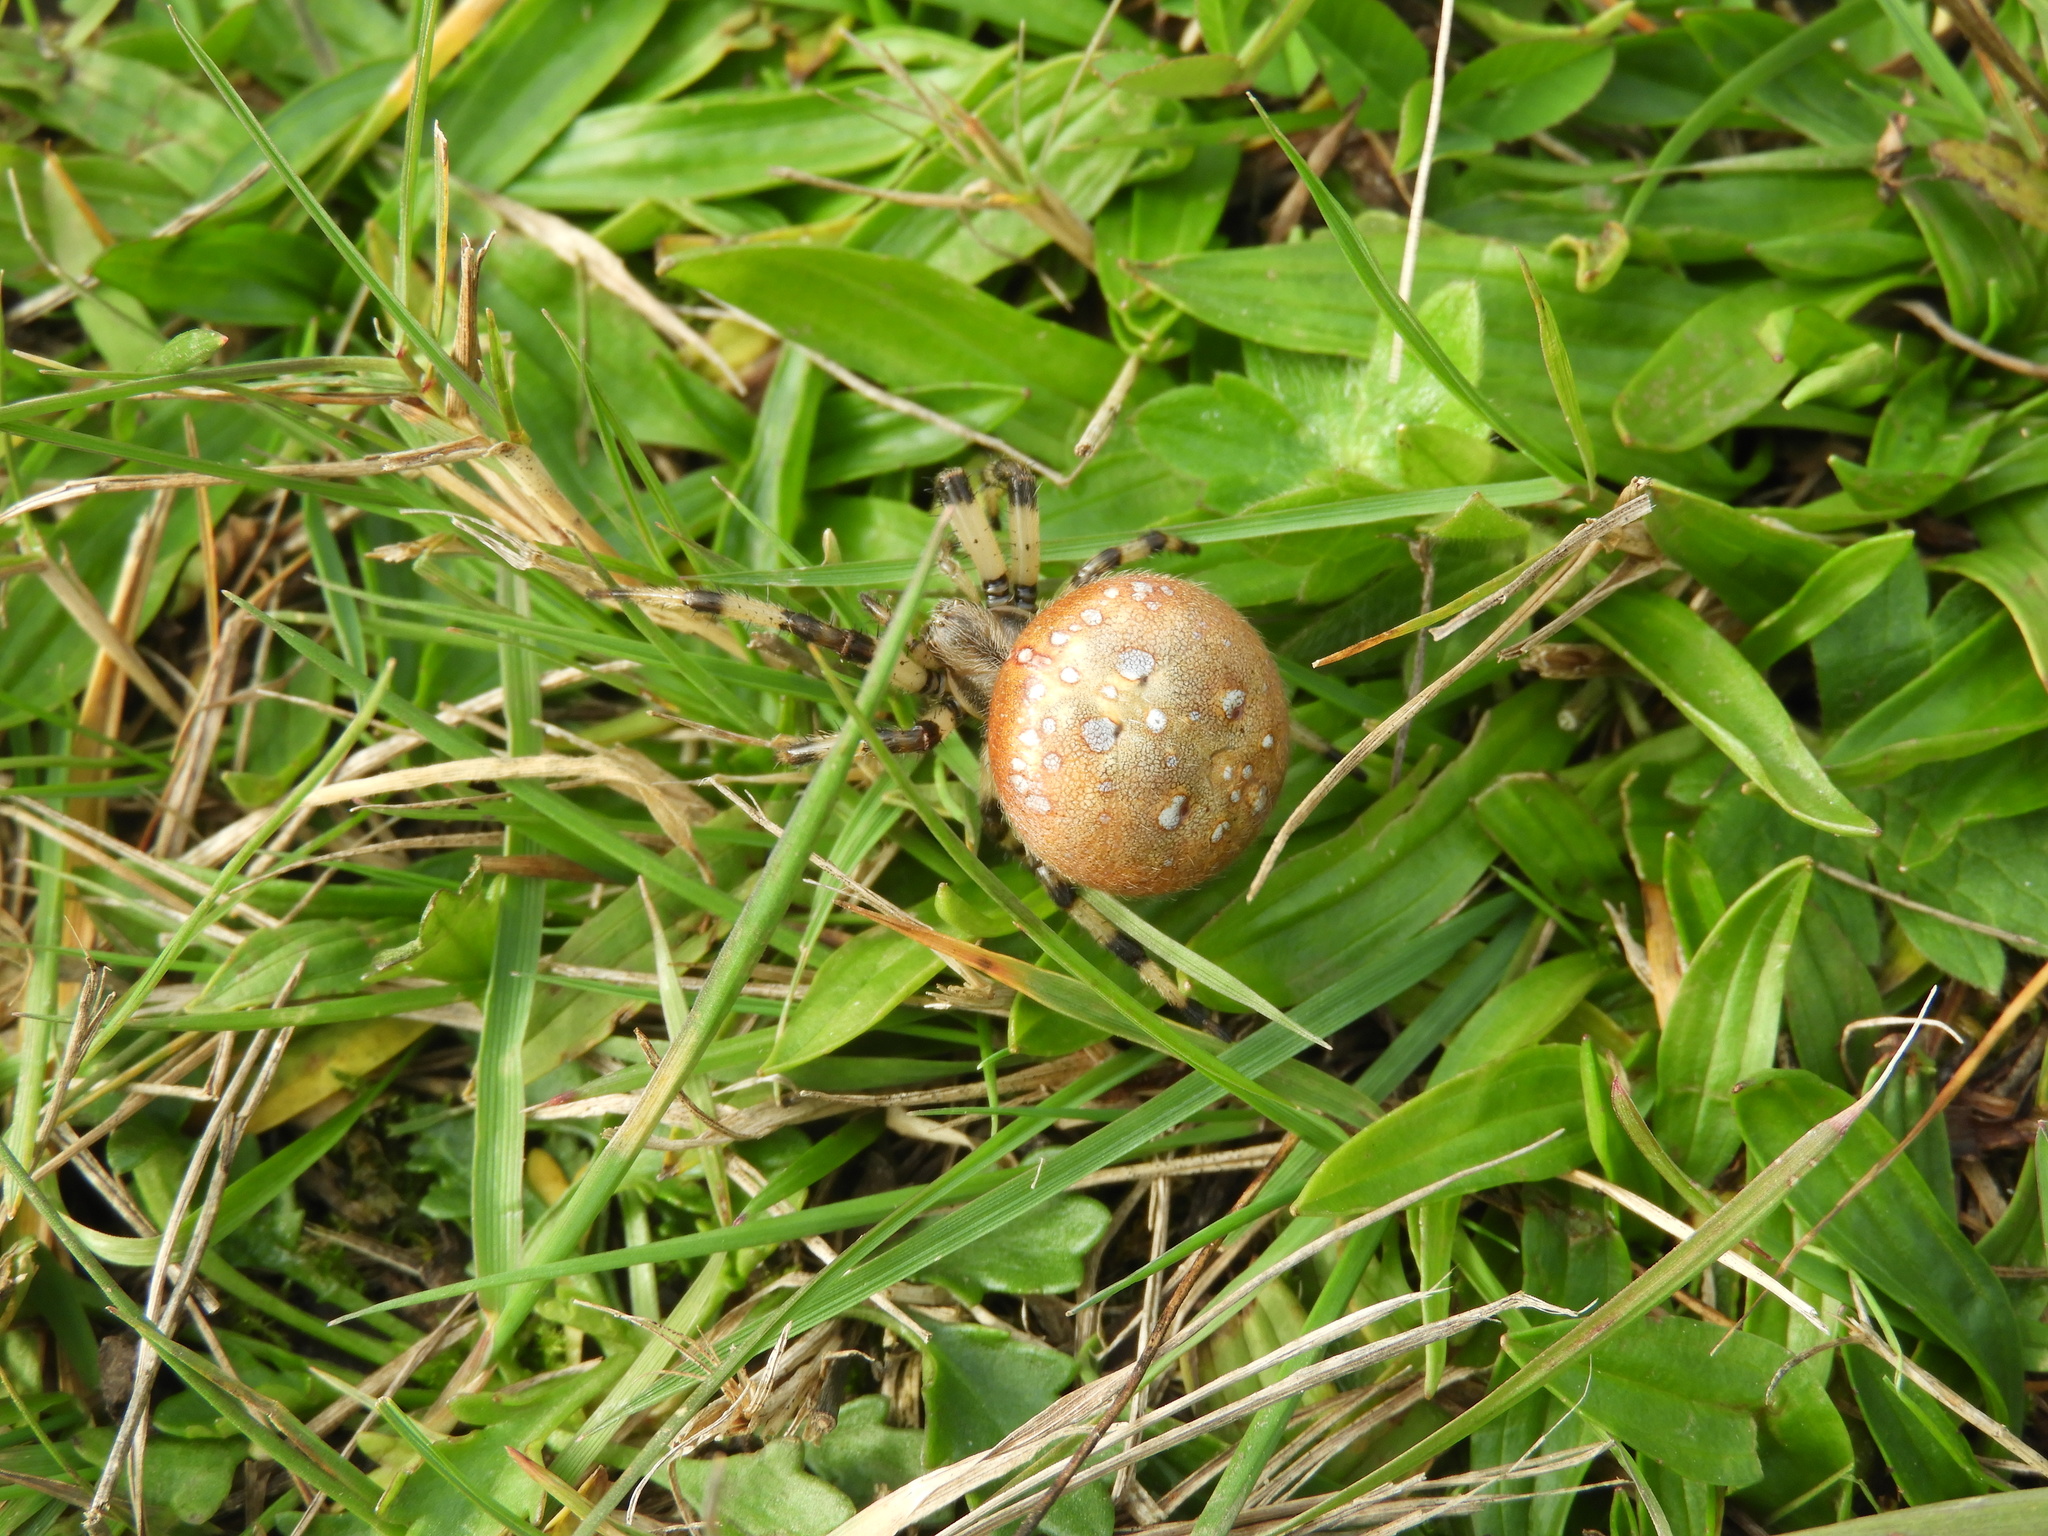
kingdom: Animalia
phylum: Arthropoda
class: Arachnida
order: Araneae
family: Araneidae
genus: Araneus
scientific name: Araneus trifolium
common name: Shamrock orbweaver
